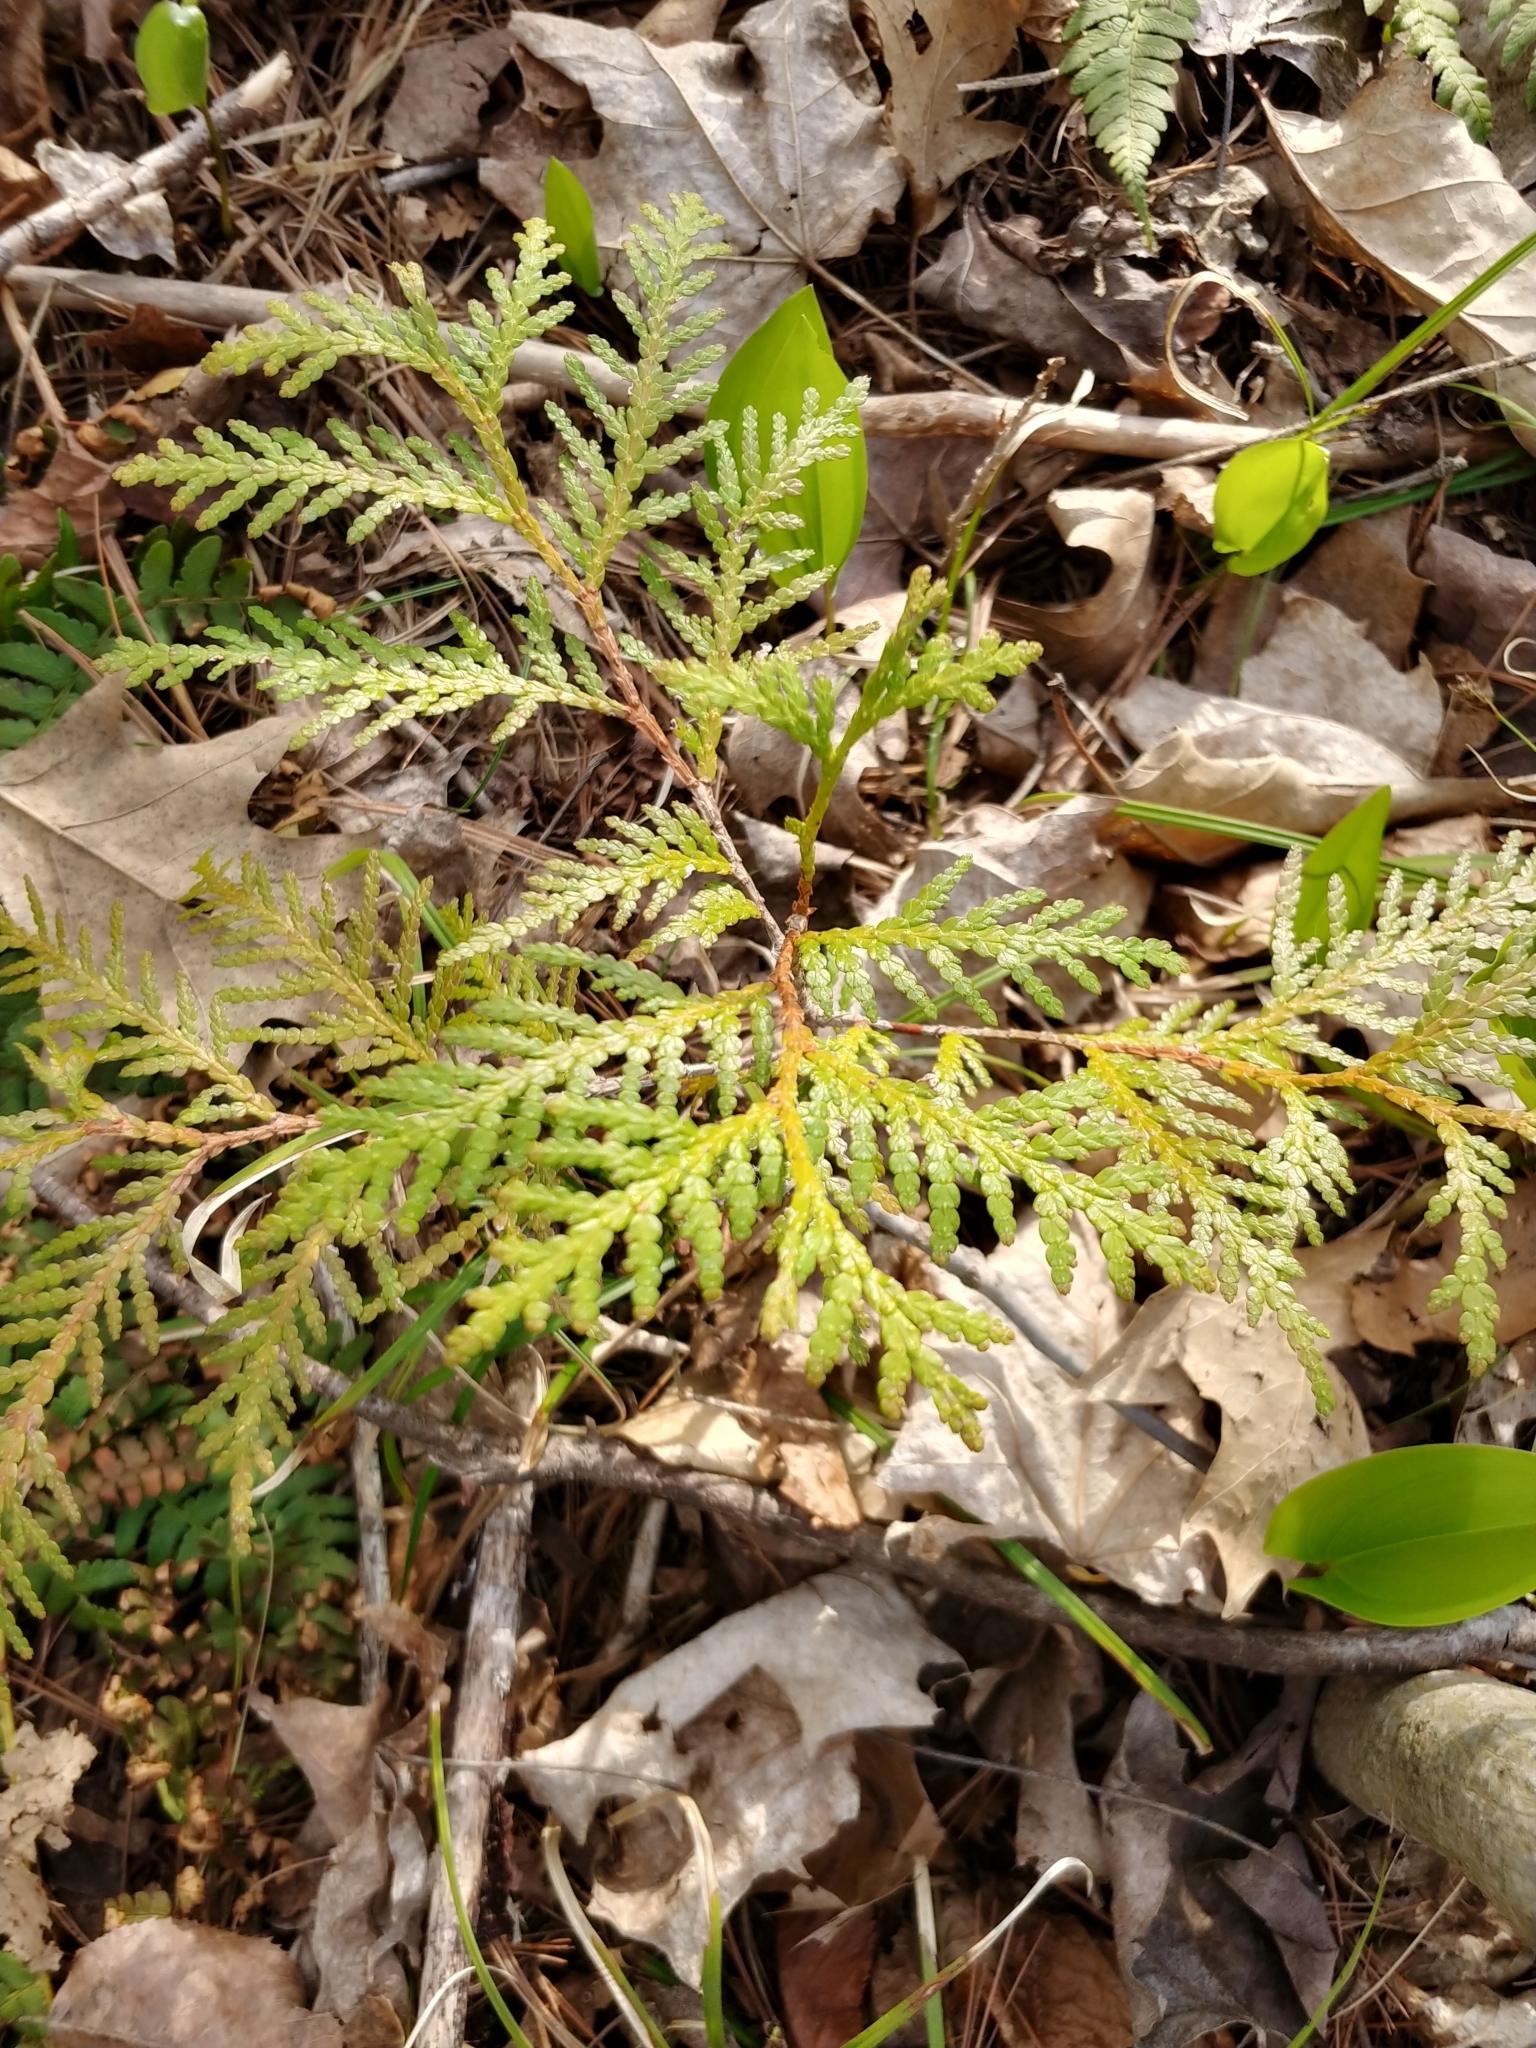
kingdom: Plantae
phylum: Tracheophyta
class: Pinopsida
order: Pinales
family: Cupressaceae
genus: Thuja
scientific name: Thuja occidentalis
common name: Northern white-cedar
